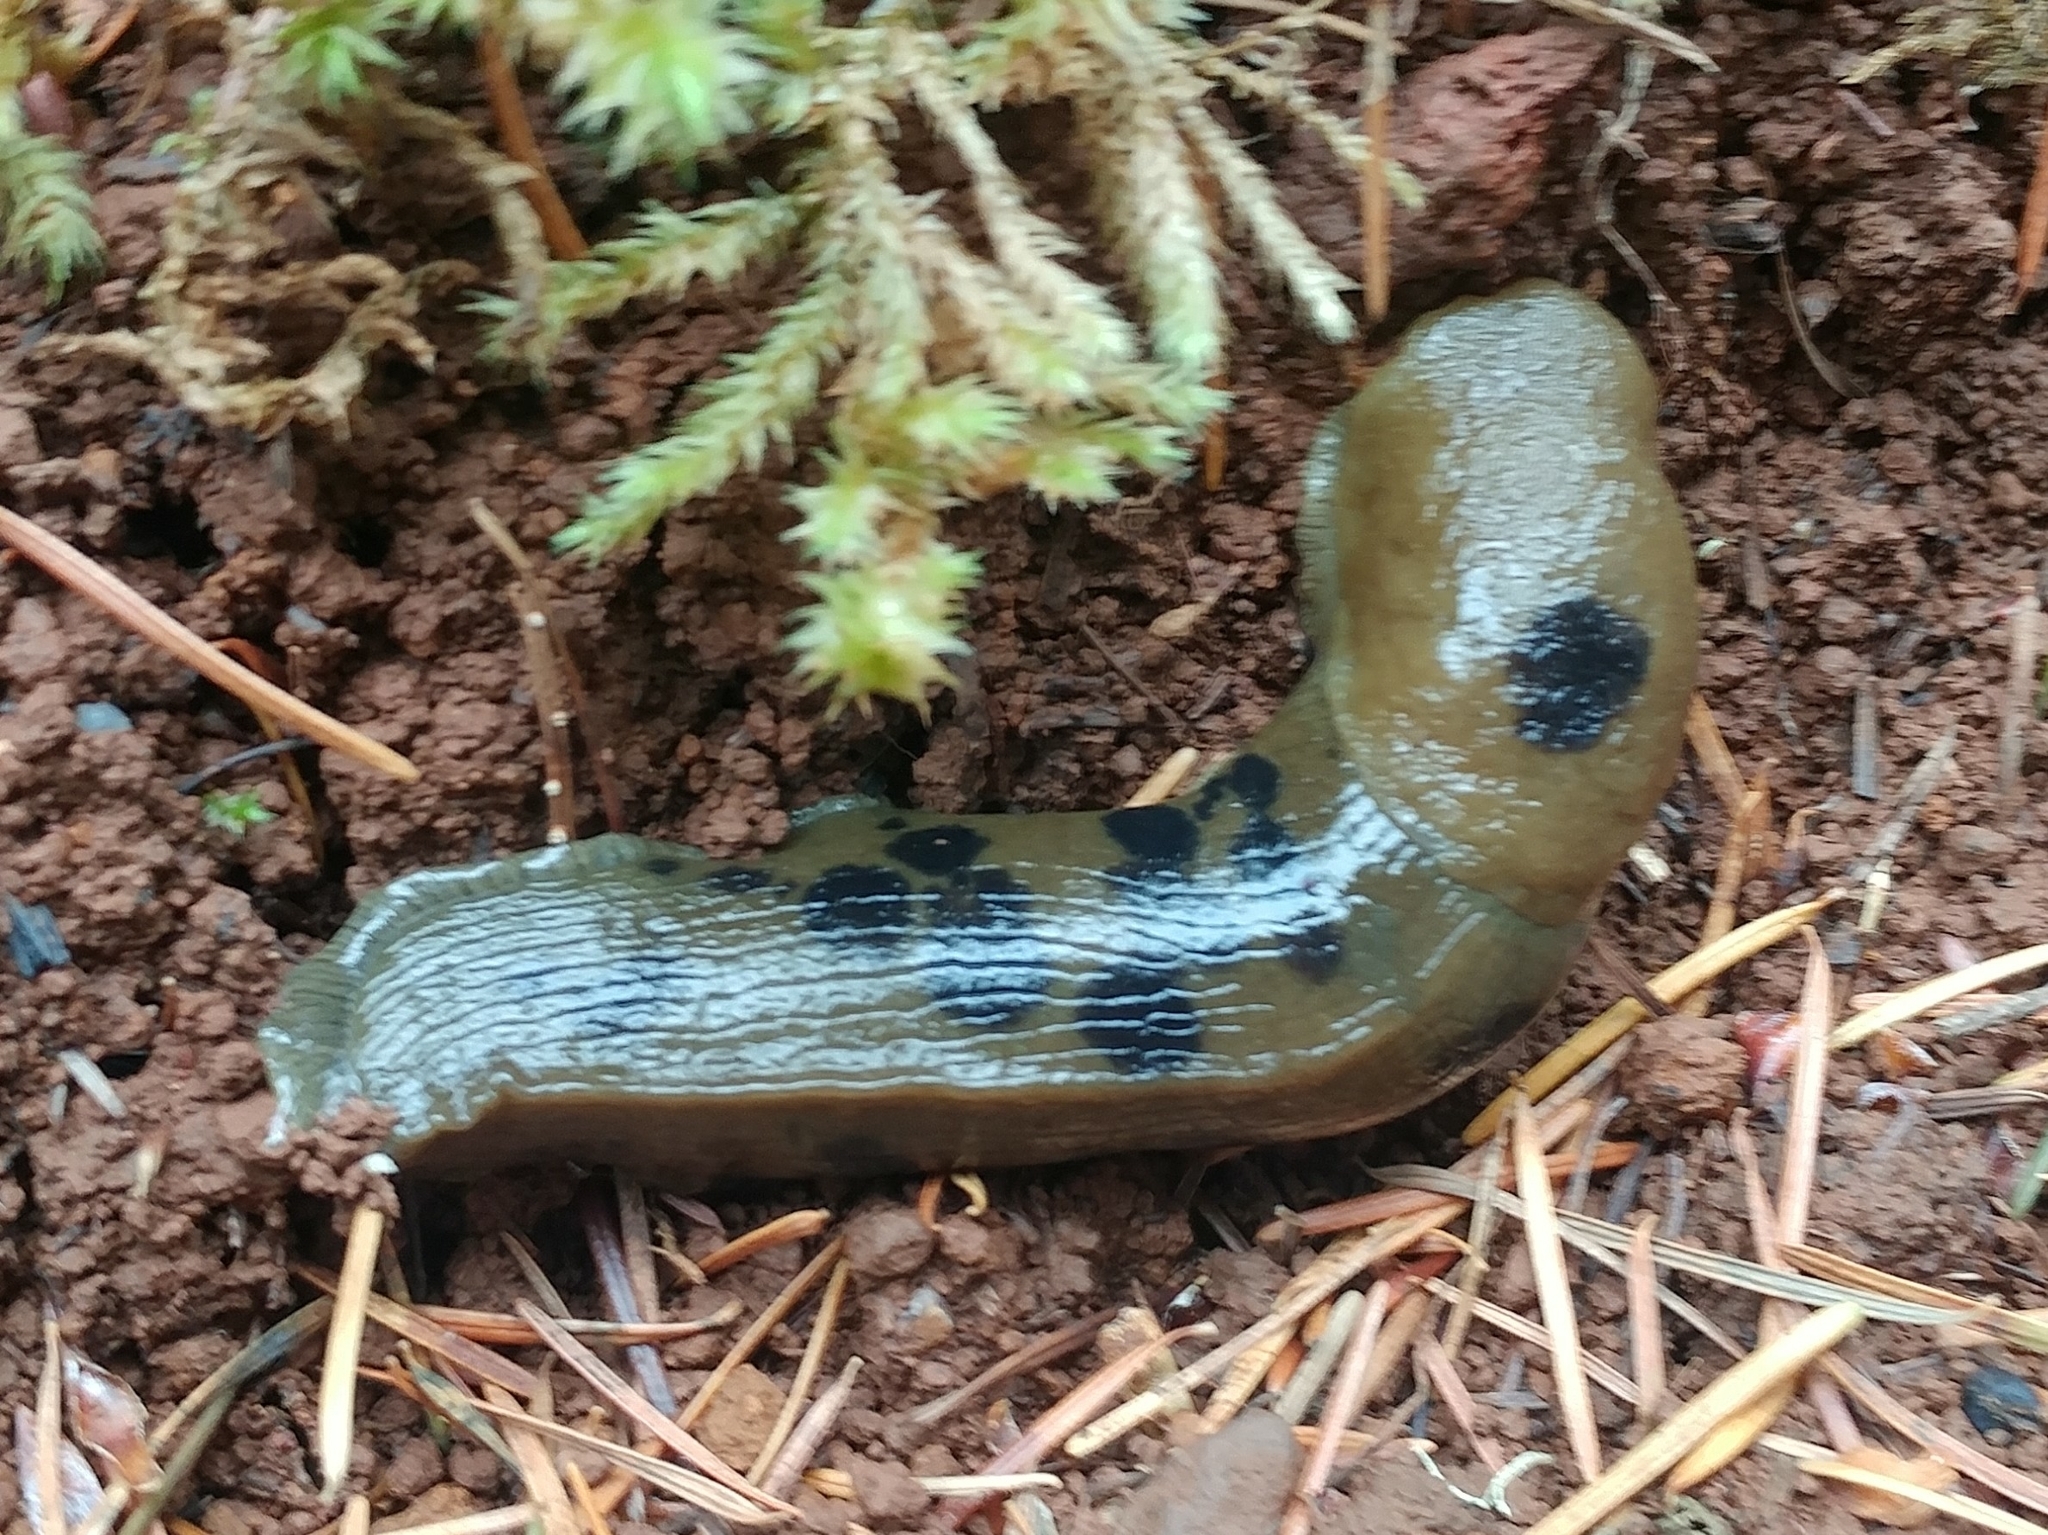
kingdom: Animalia
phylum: Mollusca
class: Gastropoda
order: Stylommatophora
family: Ariolimacidae
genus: Ariolimax
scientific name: Ariolimax columbianus
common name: Pacific banana slug
